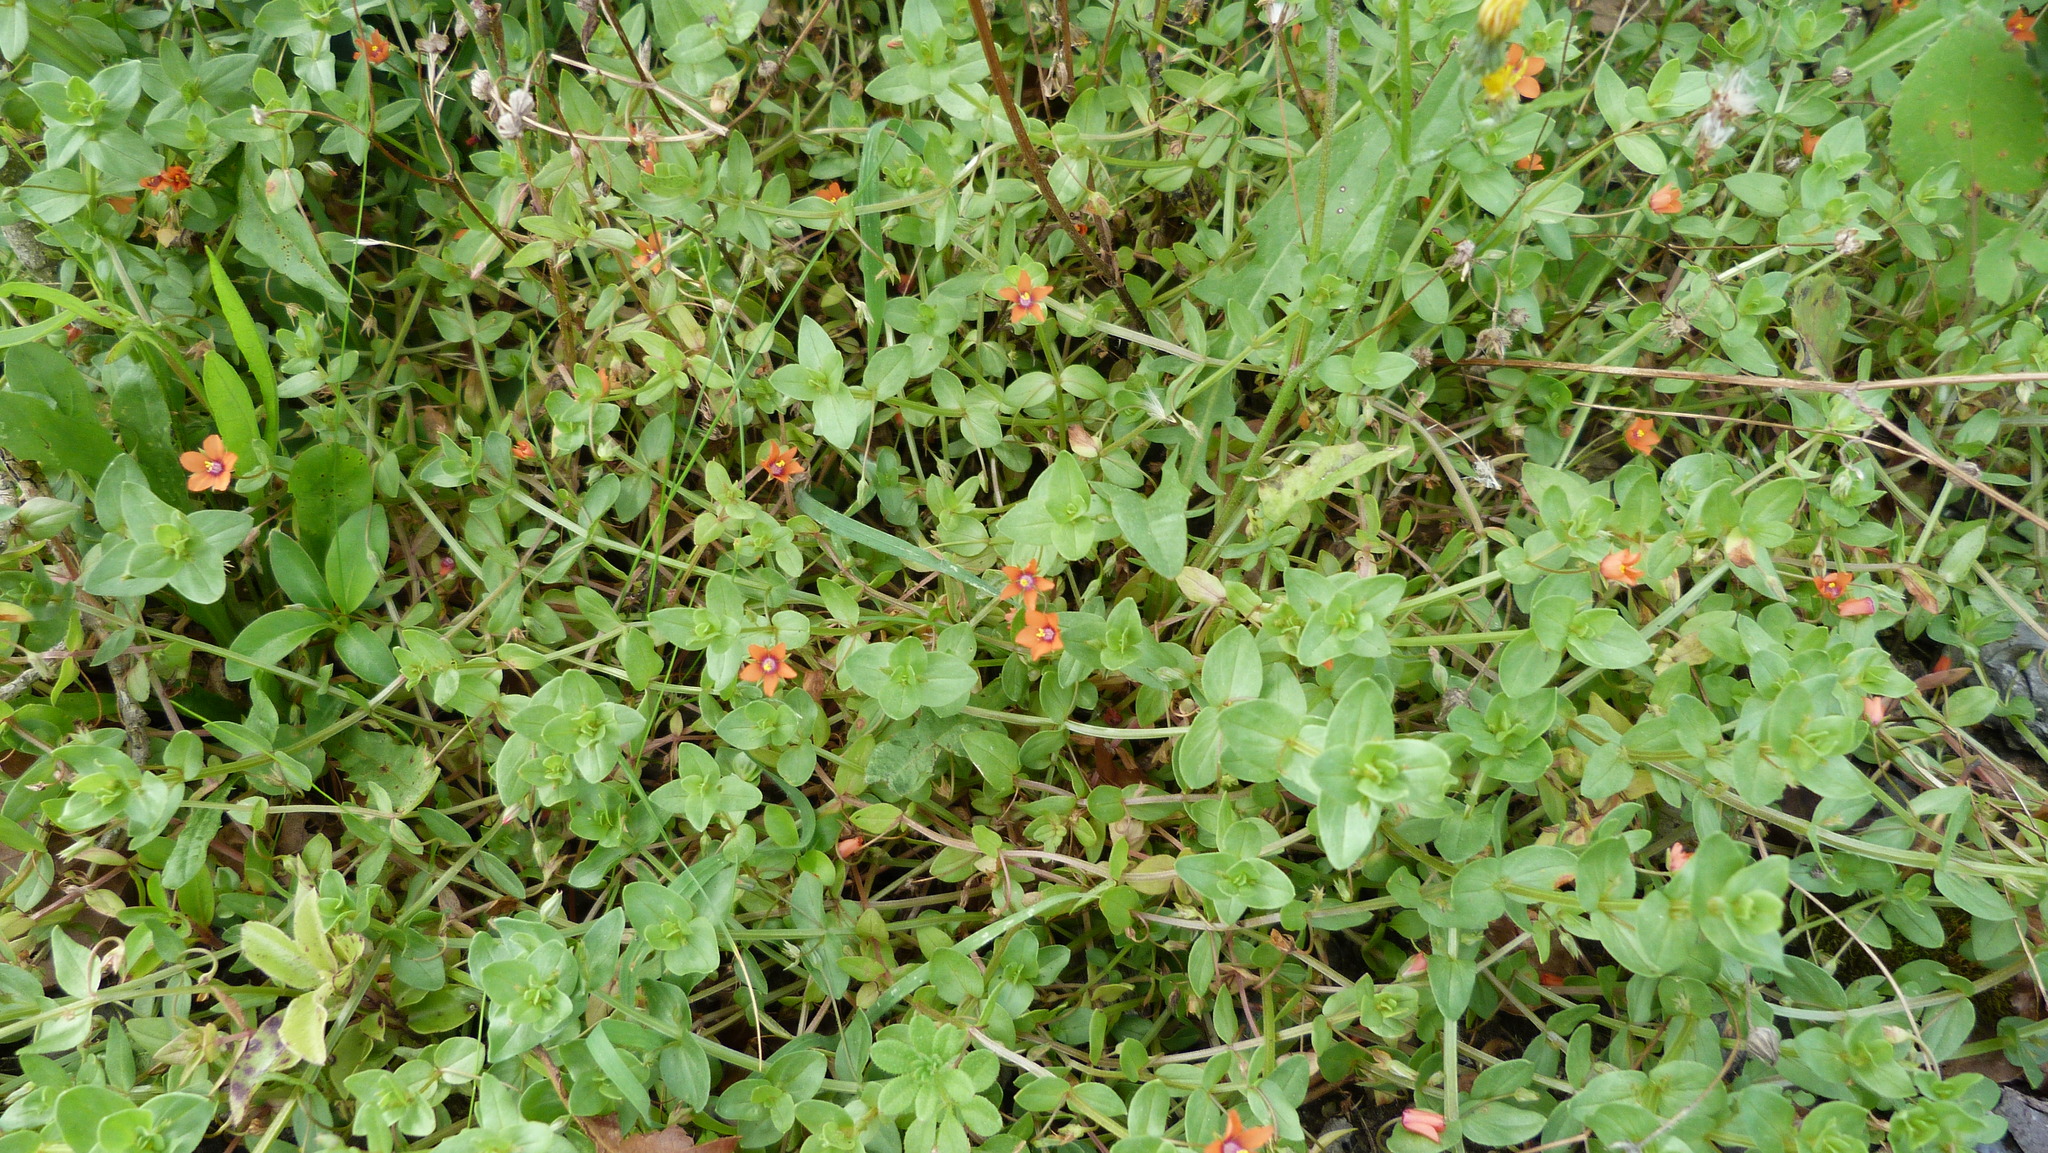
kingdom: Plantae
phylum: Tracheophyta
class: Magnoliopsida
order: Ericales
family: Primulaceae
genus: Lysimachia
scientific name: Lysimachia arvensis
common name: Scarlet pimpernel
